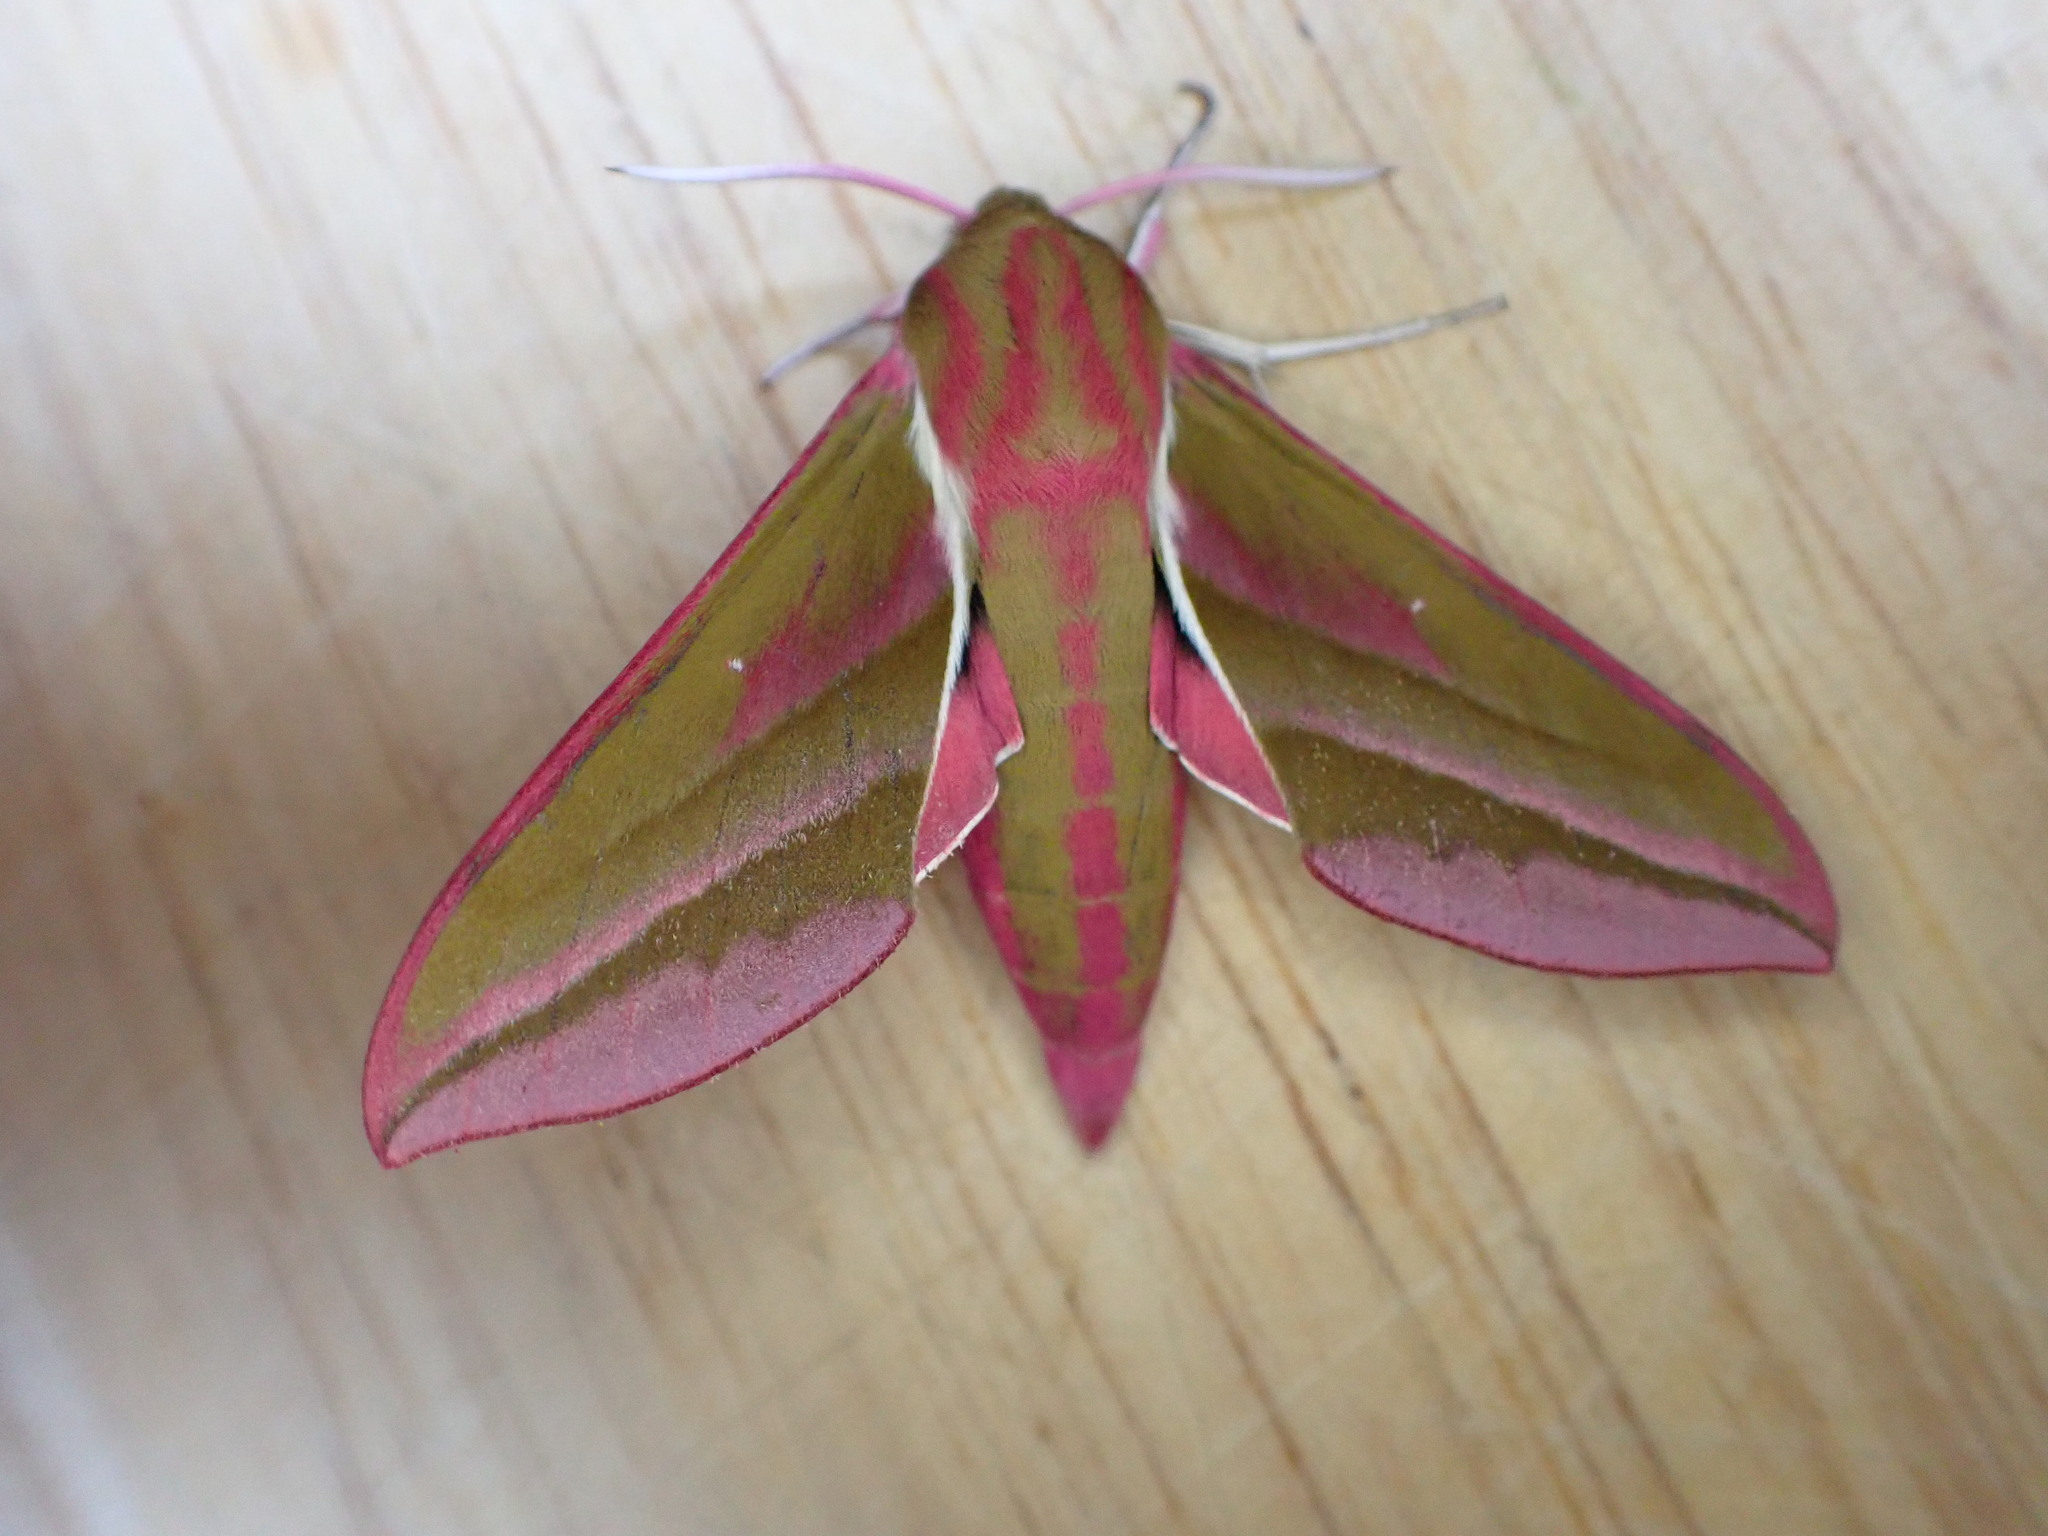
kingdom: Animalia
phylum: Arthropoda
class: Insecta
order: Lepidoptera
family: Sphingidae
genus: Deilephila
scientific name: Deilephila elpenor
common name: Elephant hawk-moth
